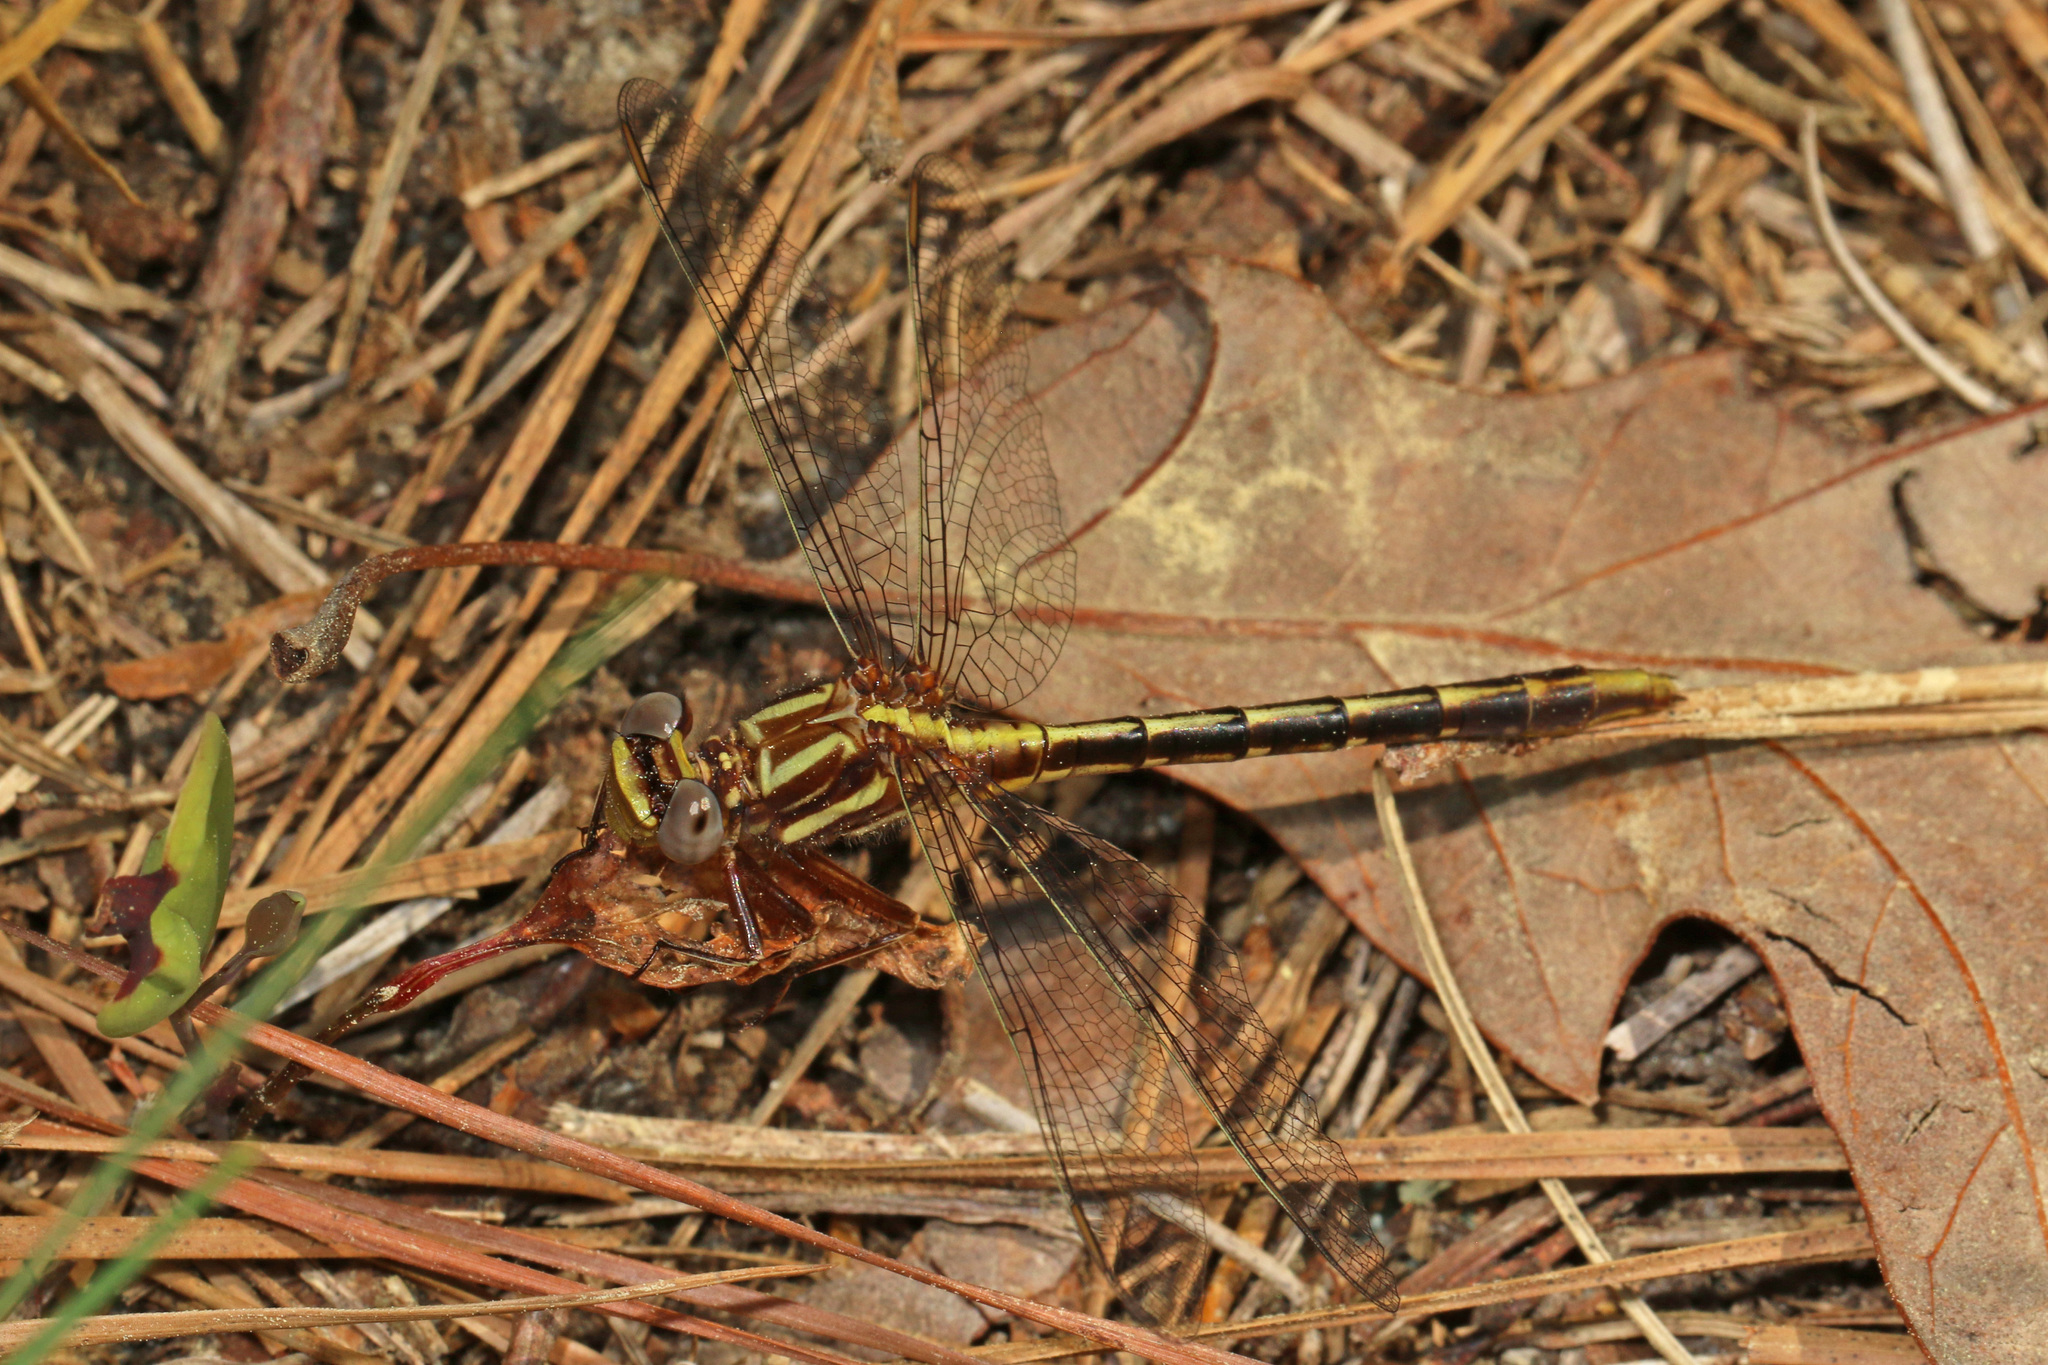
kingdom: Animalia
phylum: Arthropoda
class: Insecta
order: Odonata
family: Gomphidae
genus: Phanogomphus
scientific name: Phanogomphus exilis
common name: Lancet clubtail
